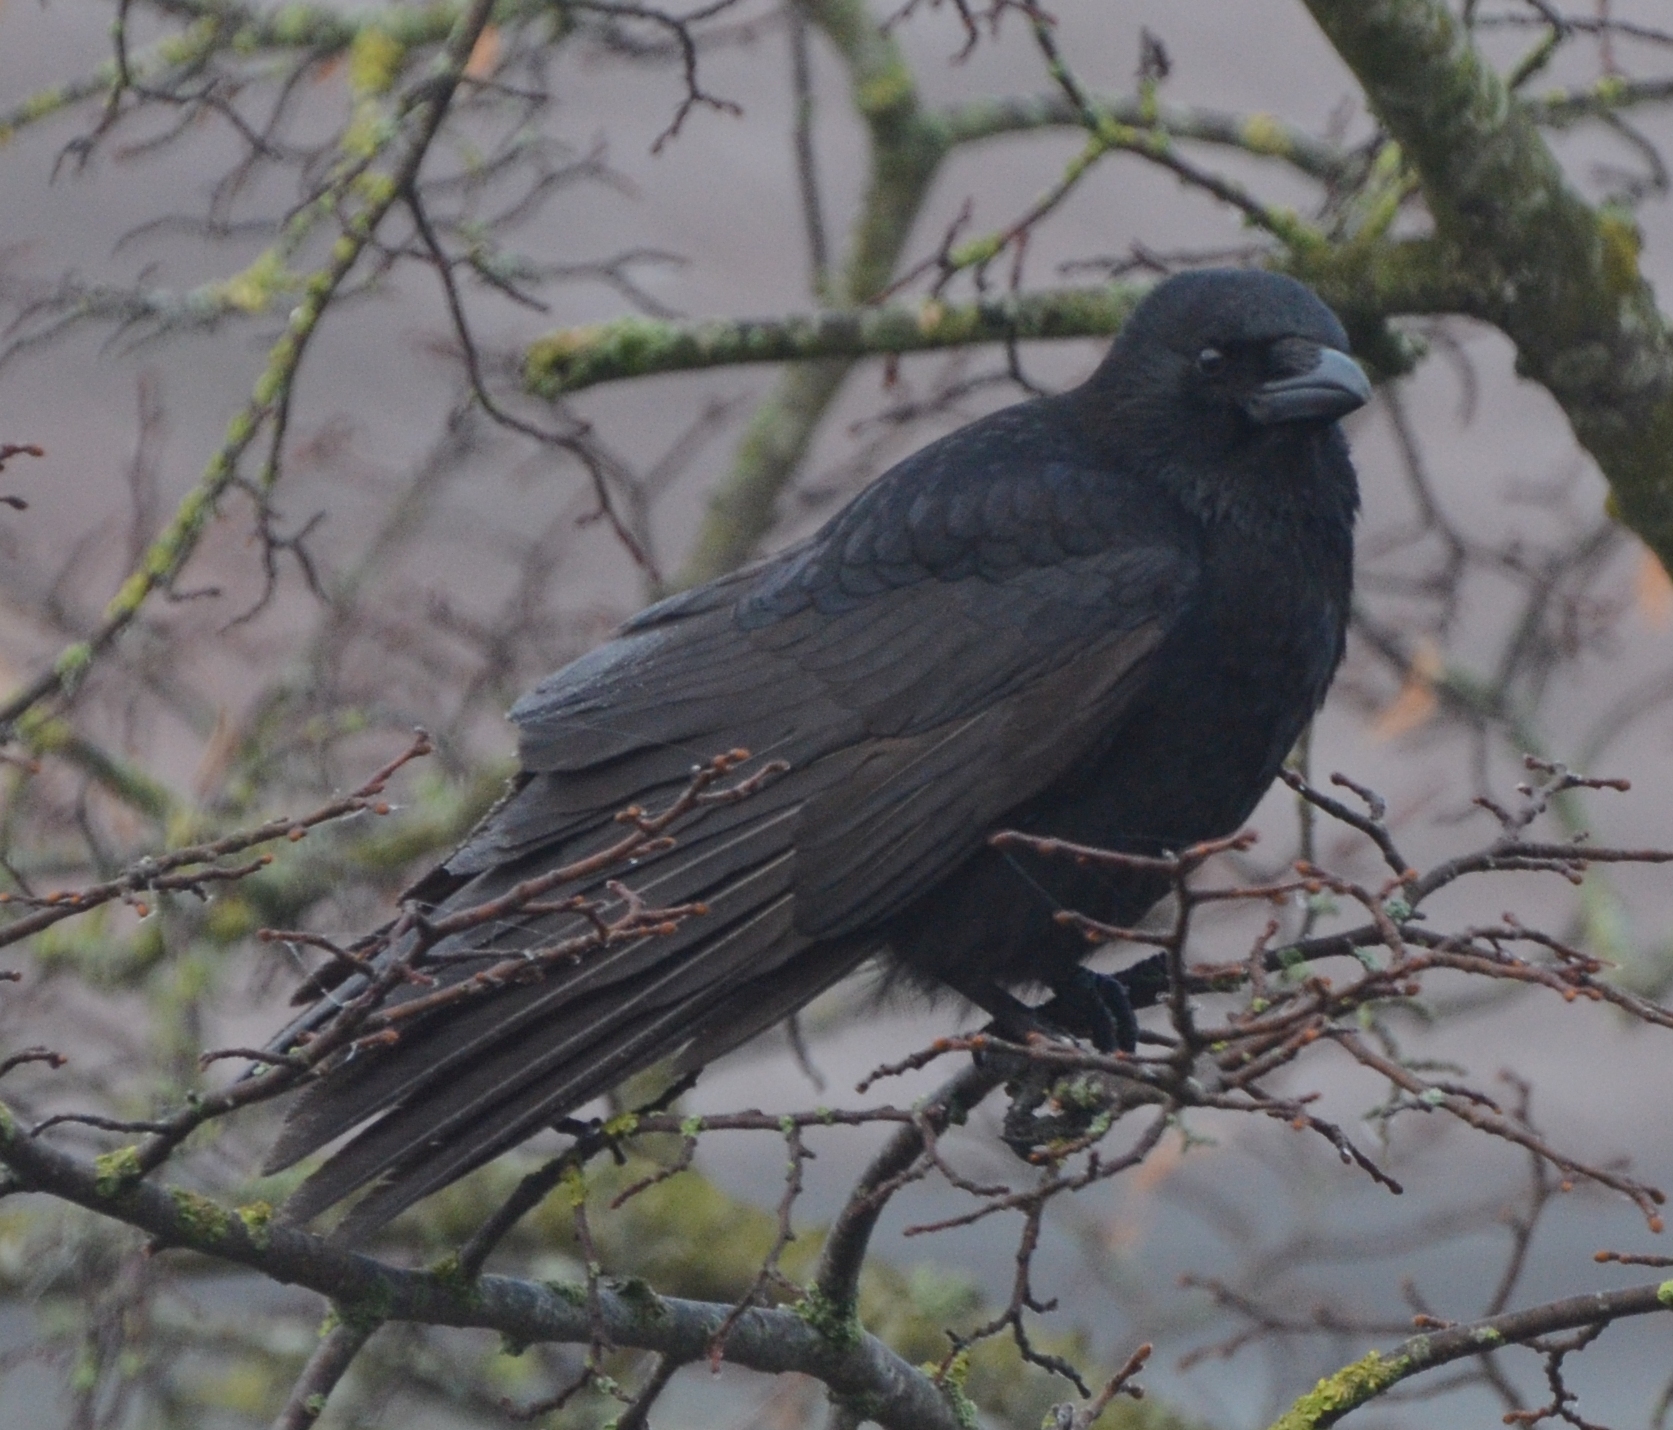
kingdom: Animalia
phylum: Chordata
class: Aves
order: Passeriformes
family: Corvidae
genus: Corvus
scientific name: Corvus corone
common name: Carrion crow
